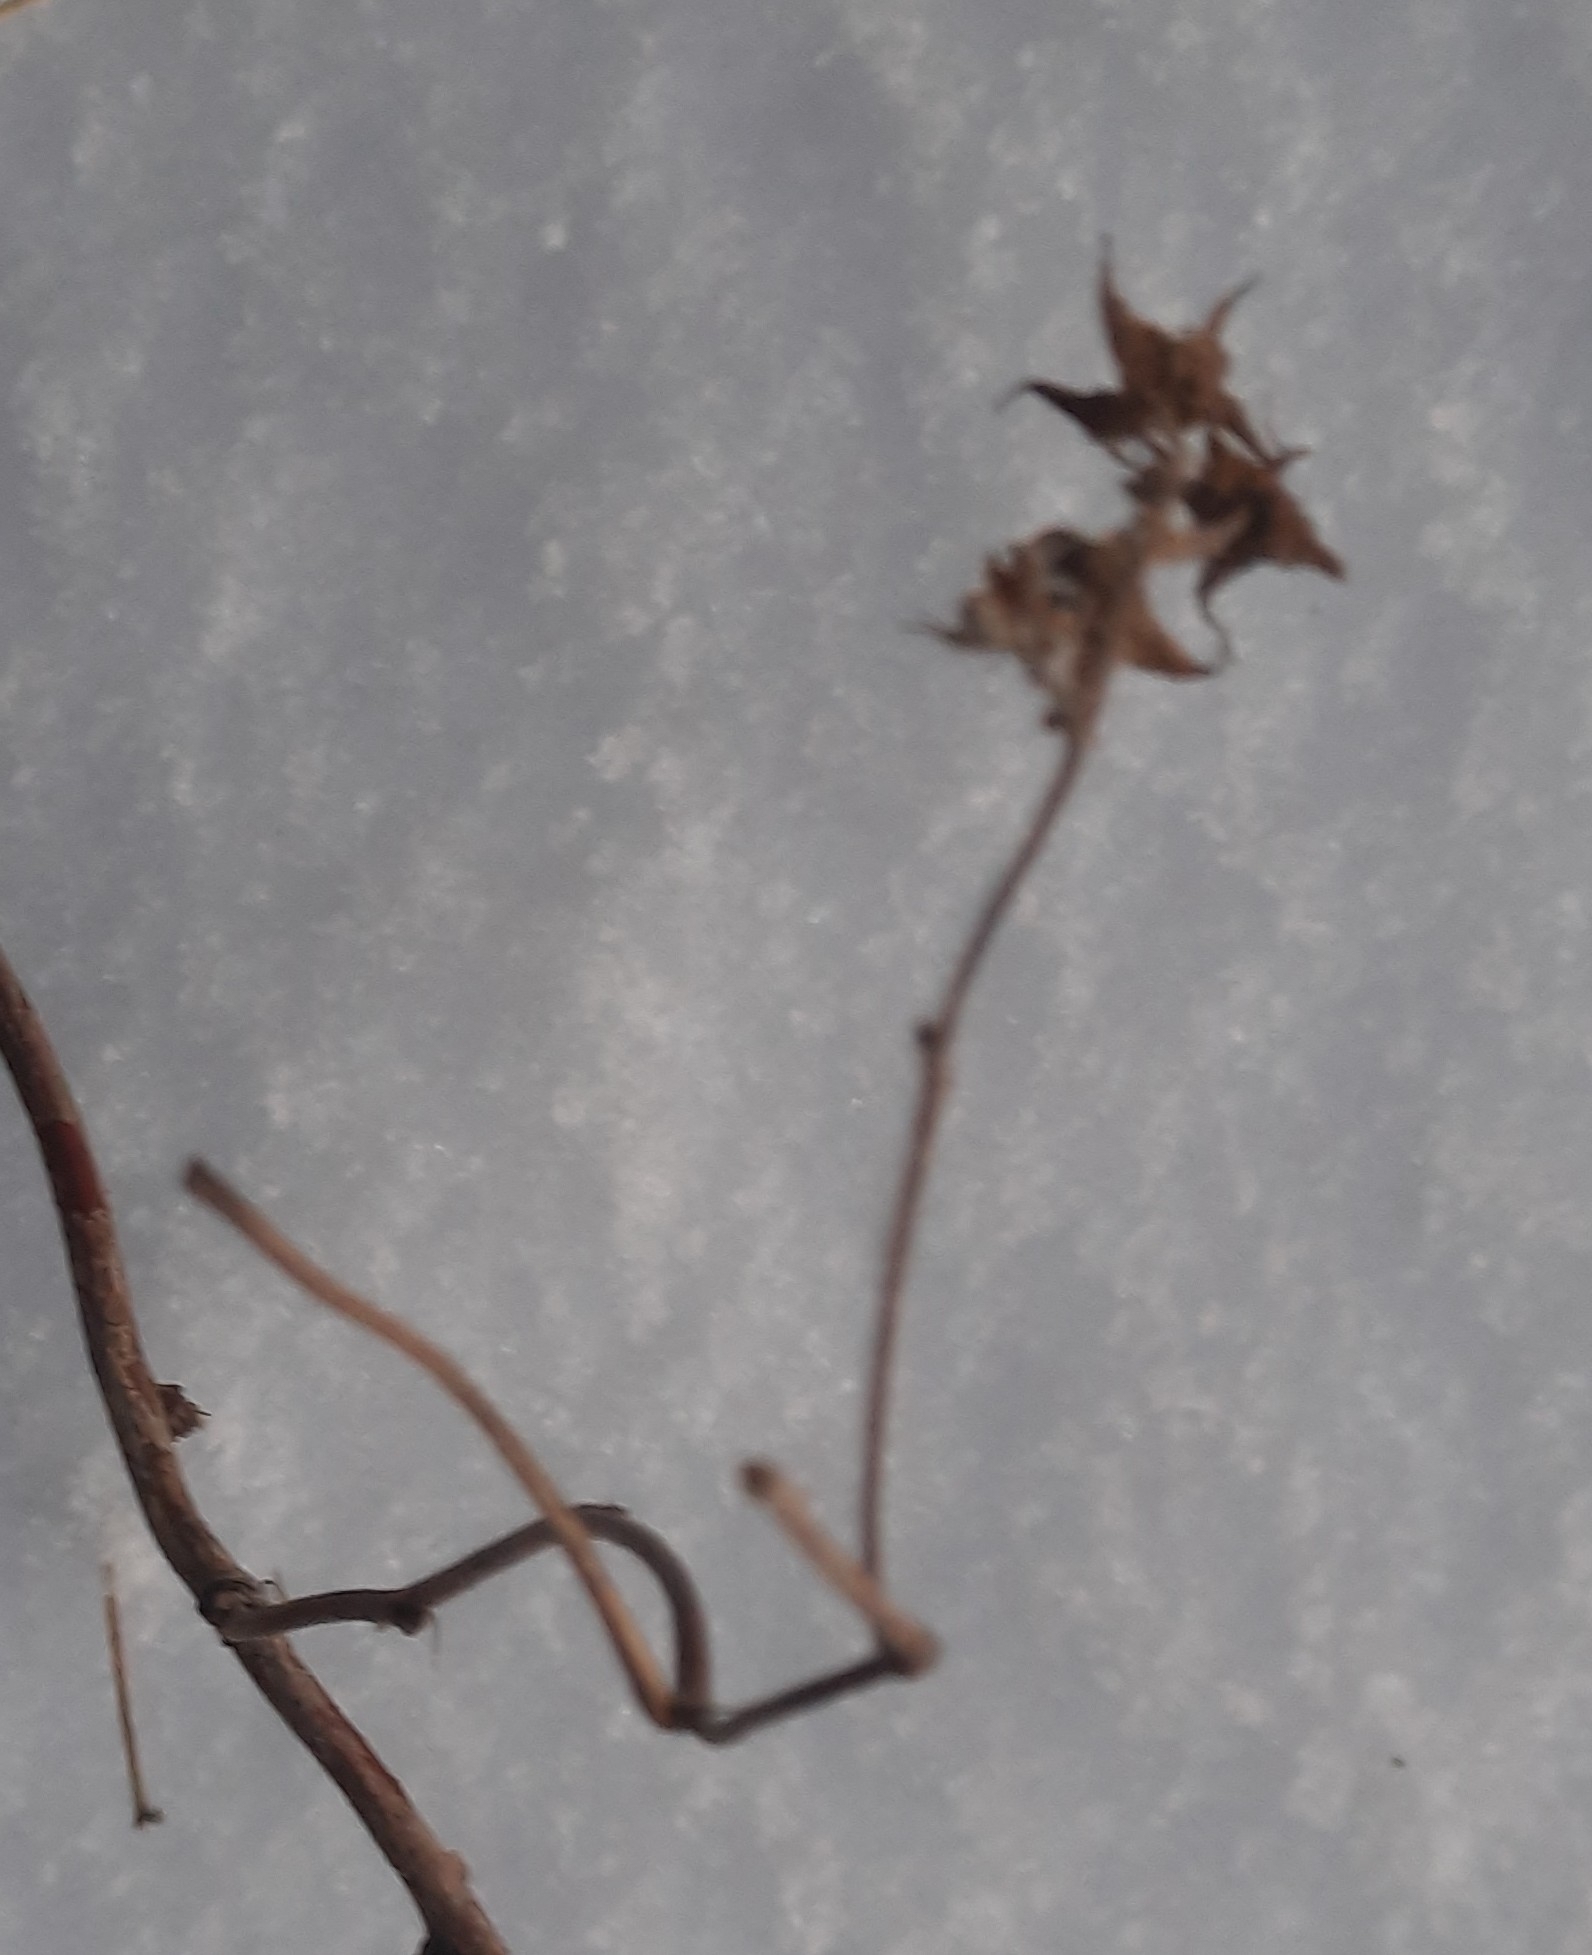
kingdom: Plantae
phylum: Tracheophyta
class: Magnoliopsida
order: Rosales
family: Rosaceae
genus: Rubus
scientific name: Rubus idaeus
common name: Raspberry
